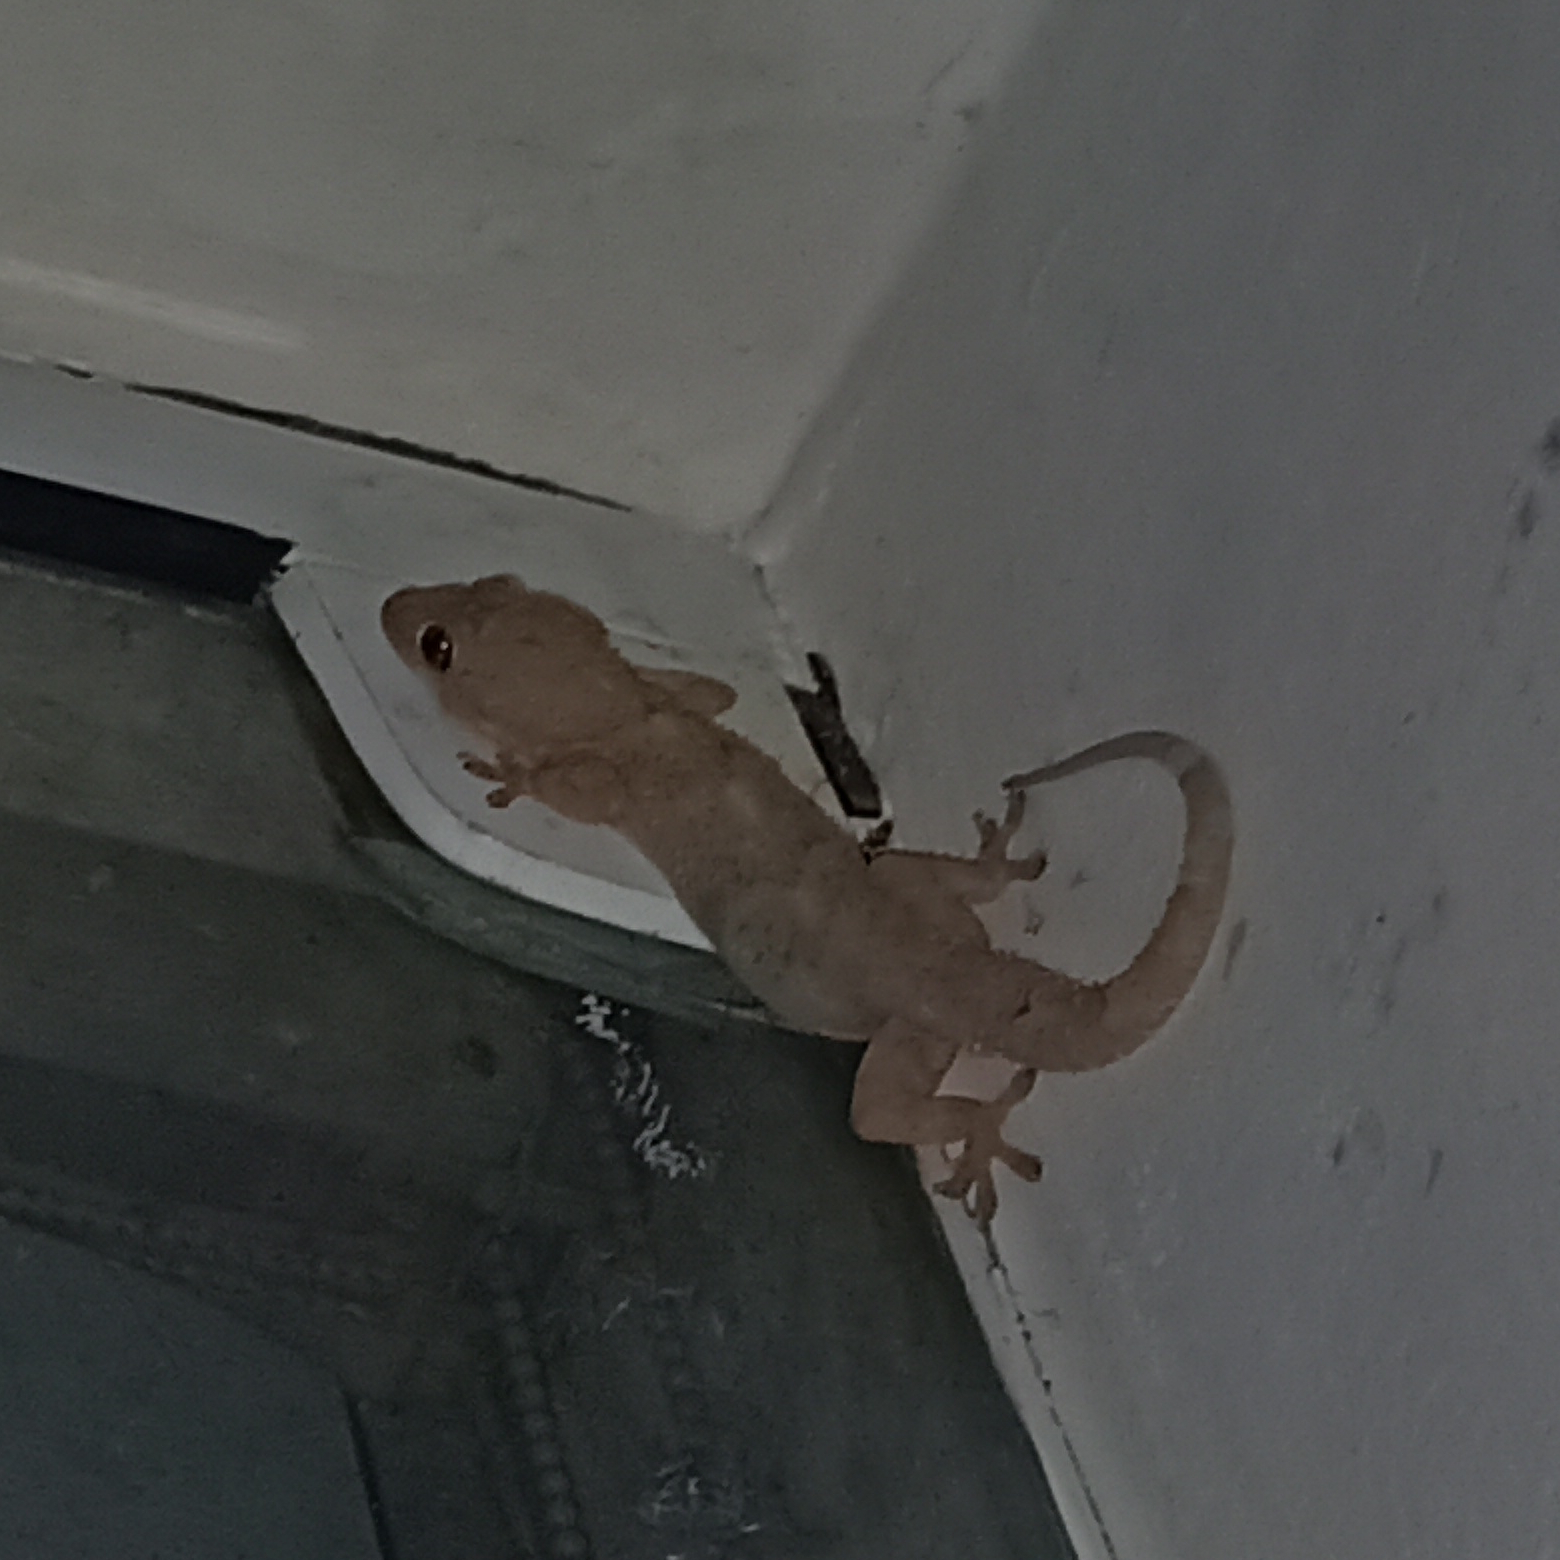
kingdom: Animalia
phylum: Chordata
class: Squamata
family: Gekkonidae
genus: Hemidactylus
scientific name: Hemidactylus mabouia
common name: House gecko
